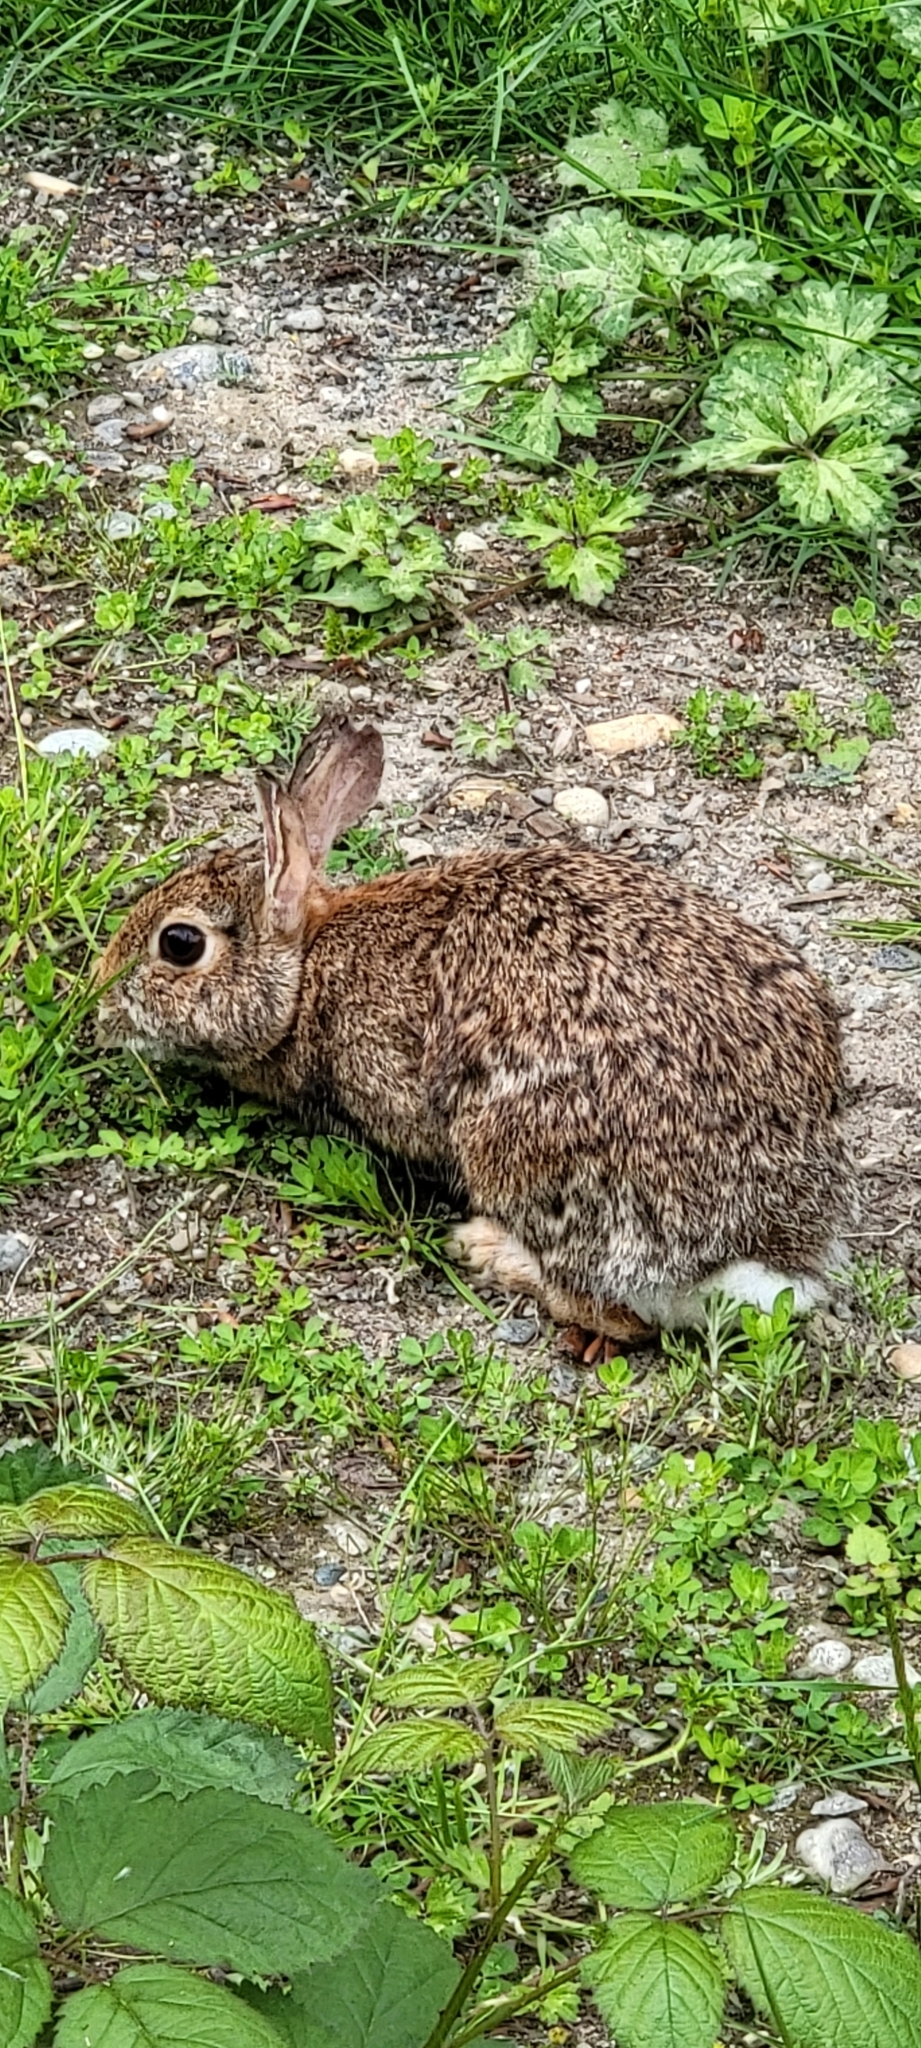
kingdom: Animalia
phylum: Chordata
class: Mammalia
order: Lagomorpha
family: Leporidae
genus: Sylvilagus
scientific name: Sylvilagus floridanus
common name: Eastern cottontail
